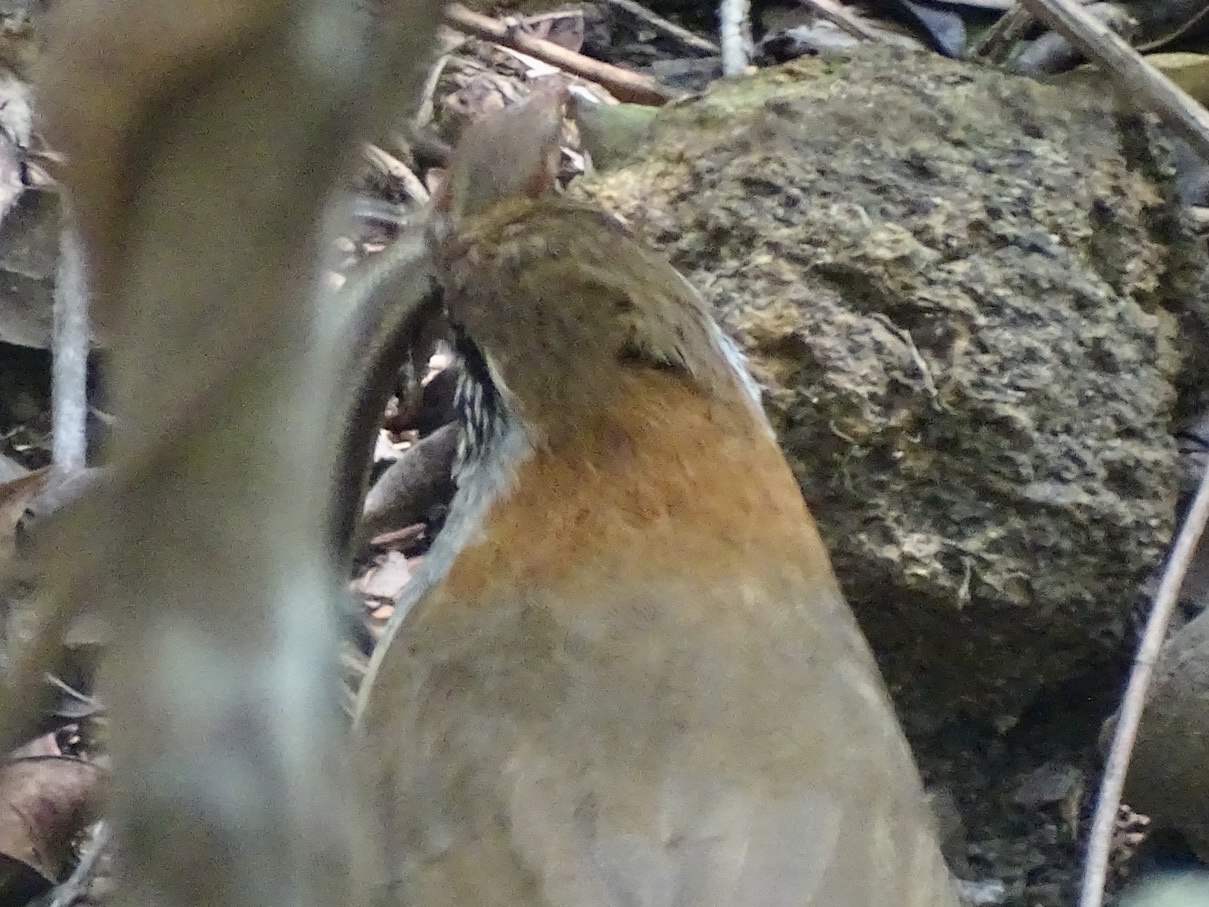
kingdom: Animalia
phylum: Chordata
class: Squamata
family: Scincidae
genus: Plestiodon
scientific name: Plestiodon quadrilineatus
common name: Four-striped skink
